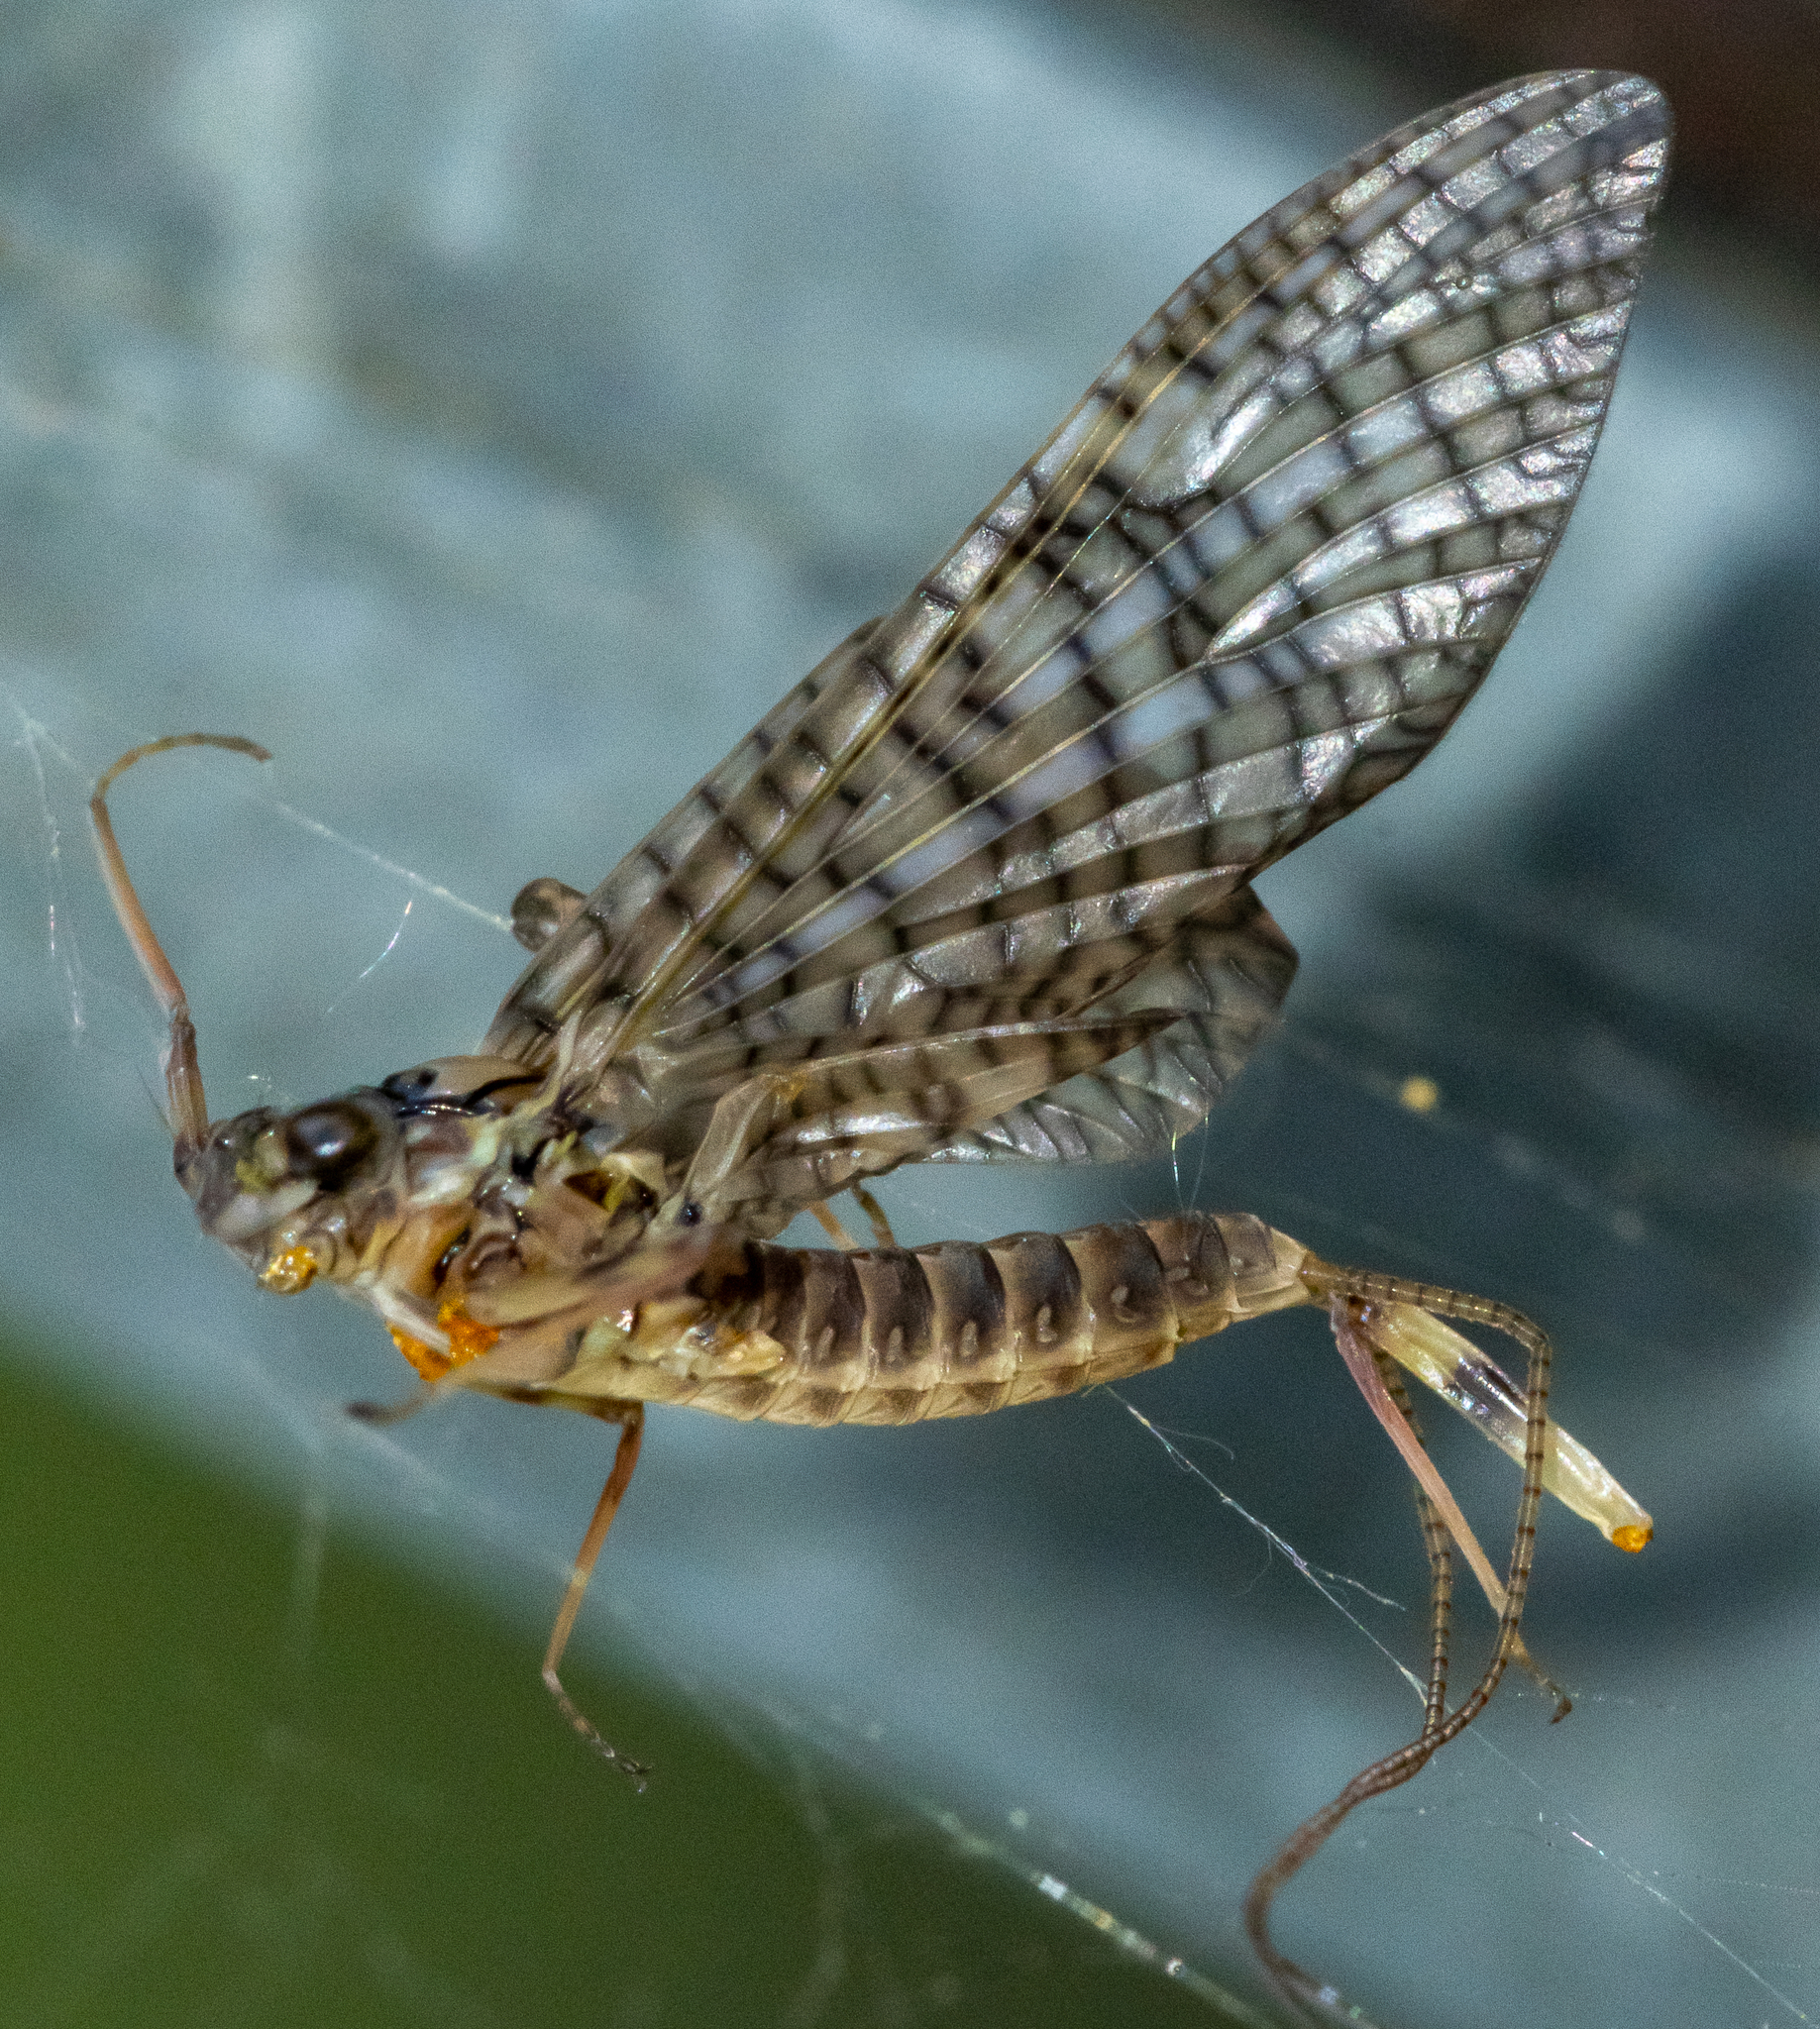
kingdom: Animalia
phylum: Arthropoda
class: Insecta
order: Ephemeroptera
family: Heptageniidae
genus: Maccaffertium
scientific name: Maccaffertium vicarium
